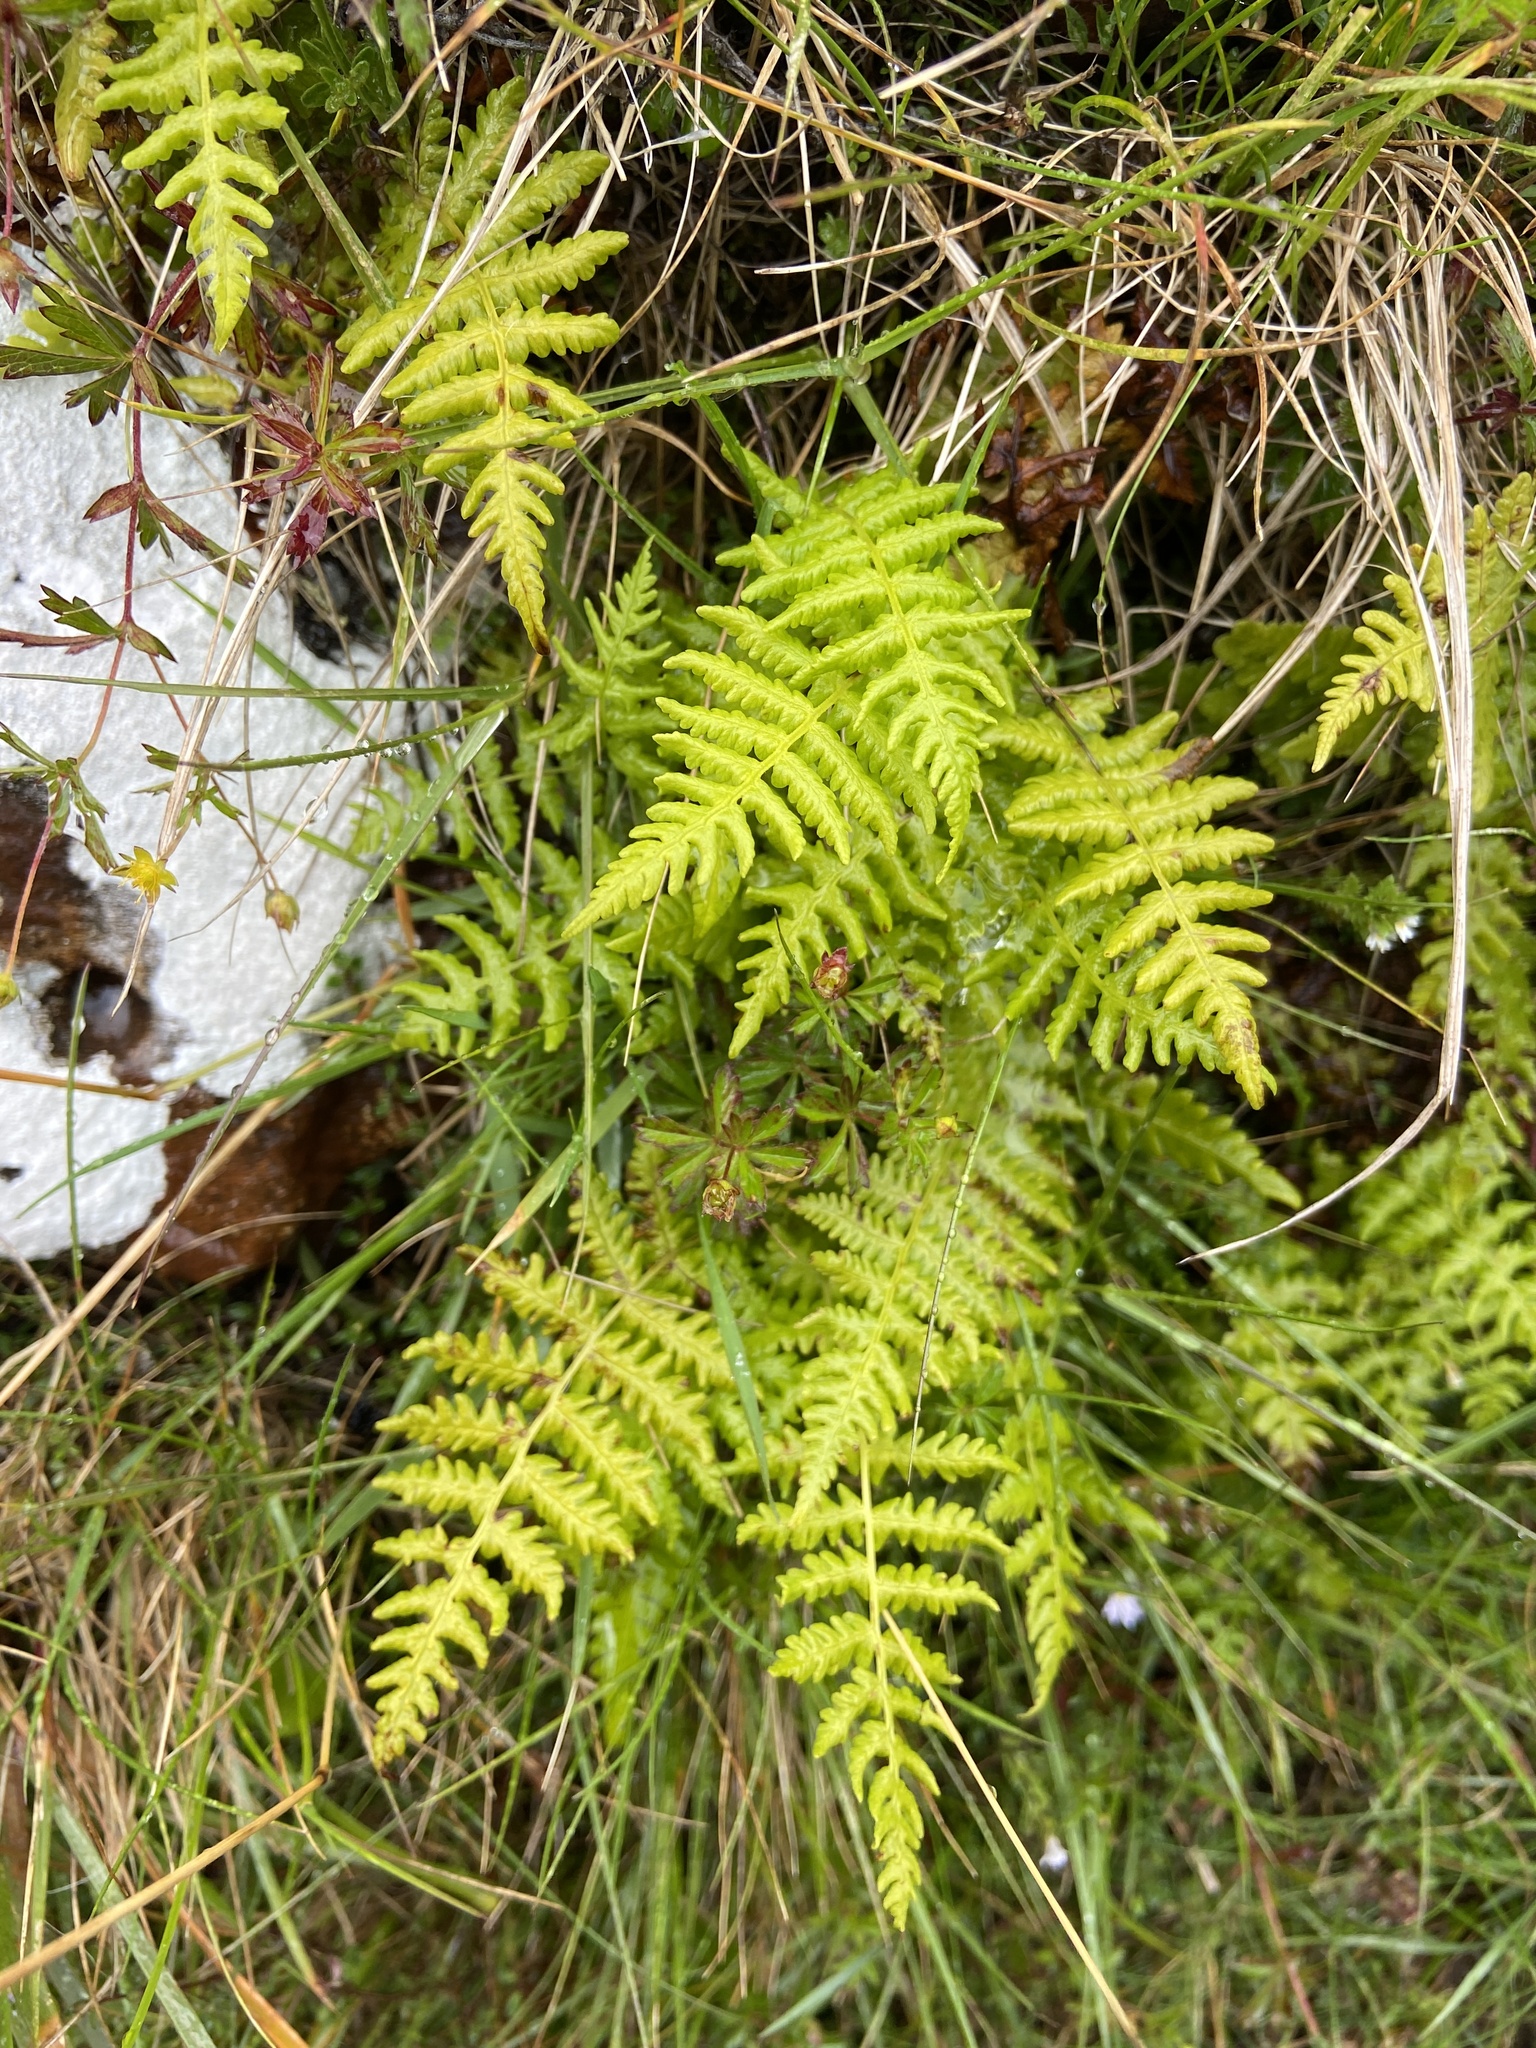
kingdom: Plantae
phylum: Tracheophyta
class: Polypodiopsida
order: Polypodiales
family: Thelypteridaceae
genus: Oreopteris
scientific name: Oreopteris limbosperma
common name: Lemon-scented fern
